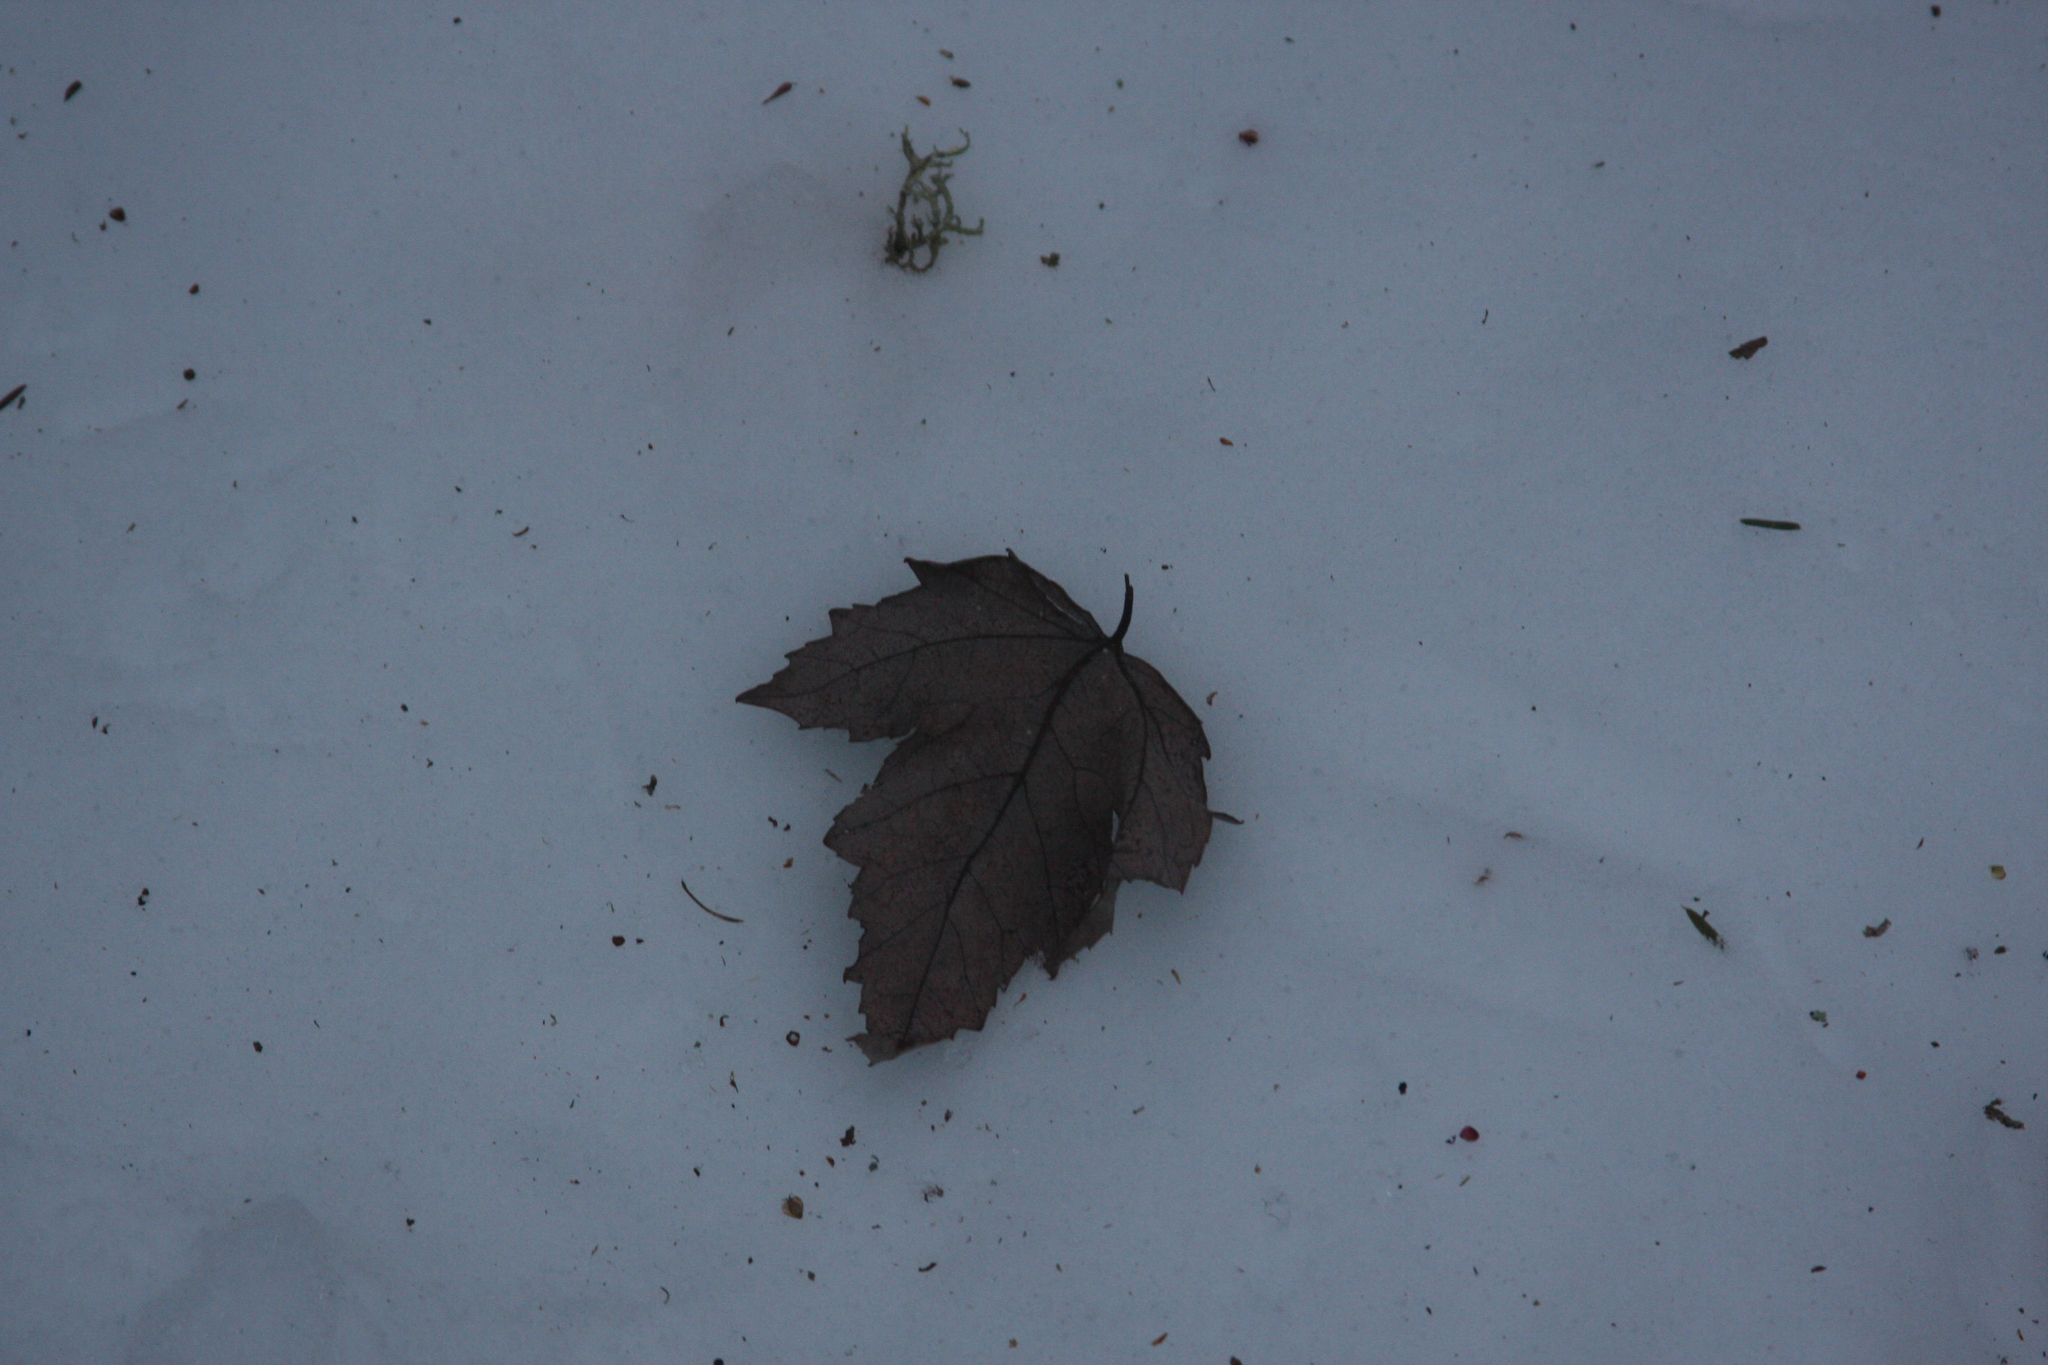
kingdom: Plantae
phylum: Tracheophyta
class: Magnoliopsida
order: Sapindales
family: Sapindaceae
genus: Acer
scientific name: Acer rubrum
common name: Red maple
